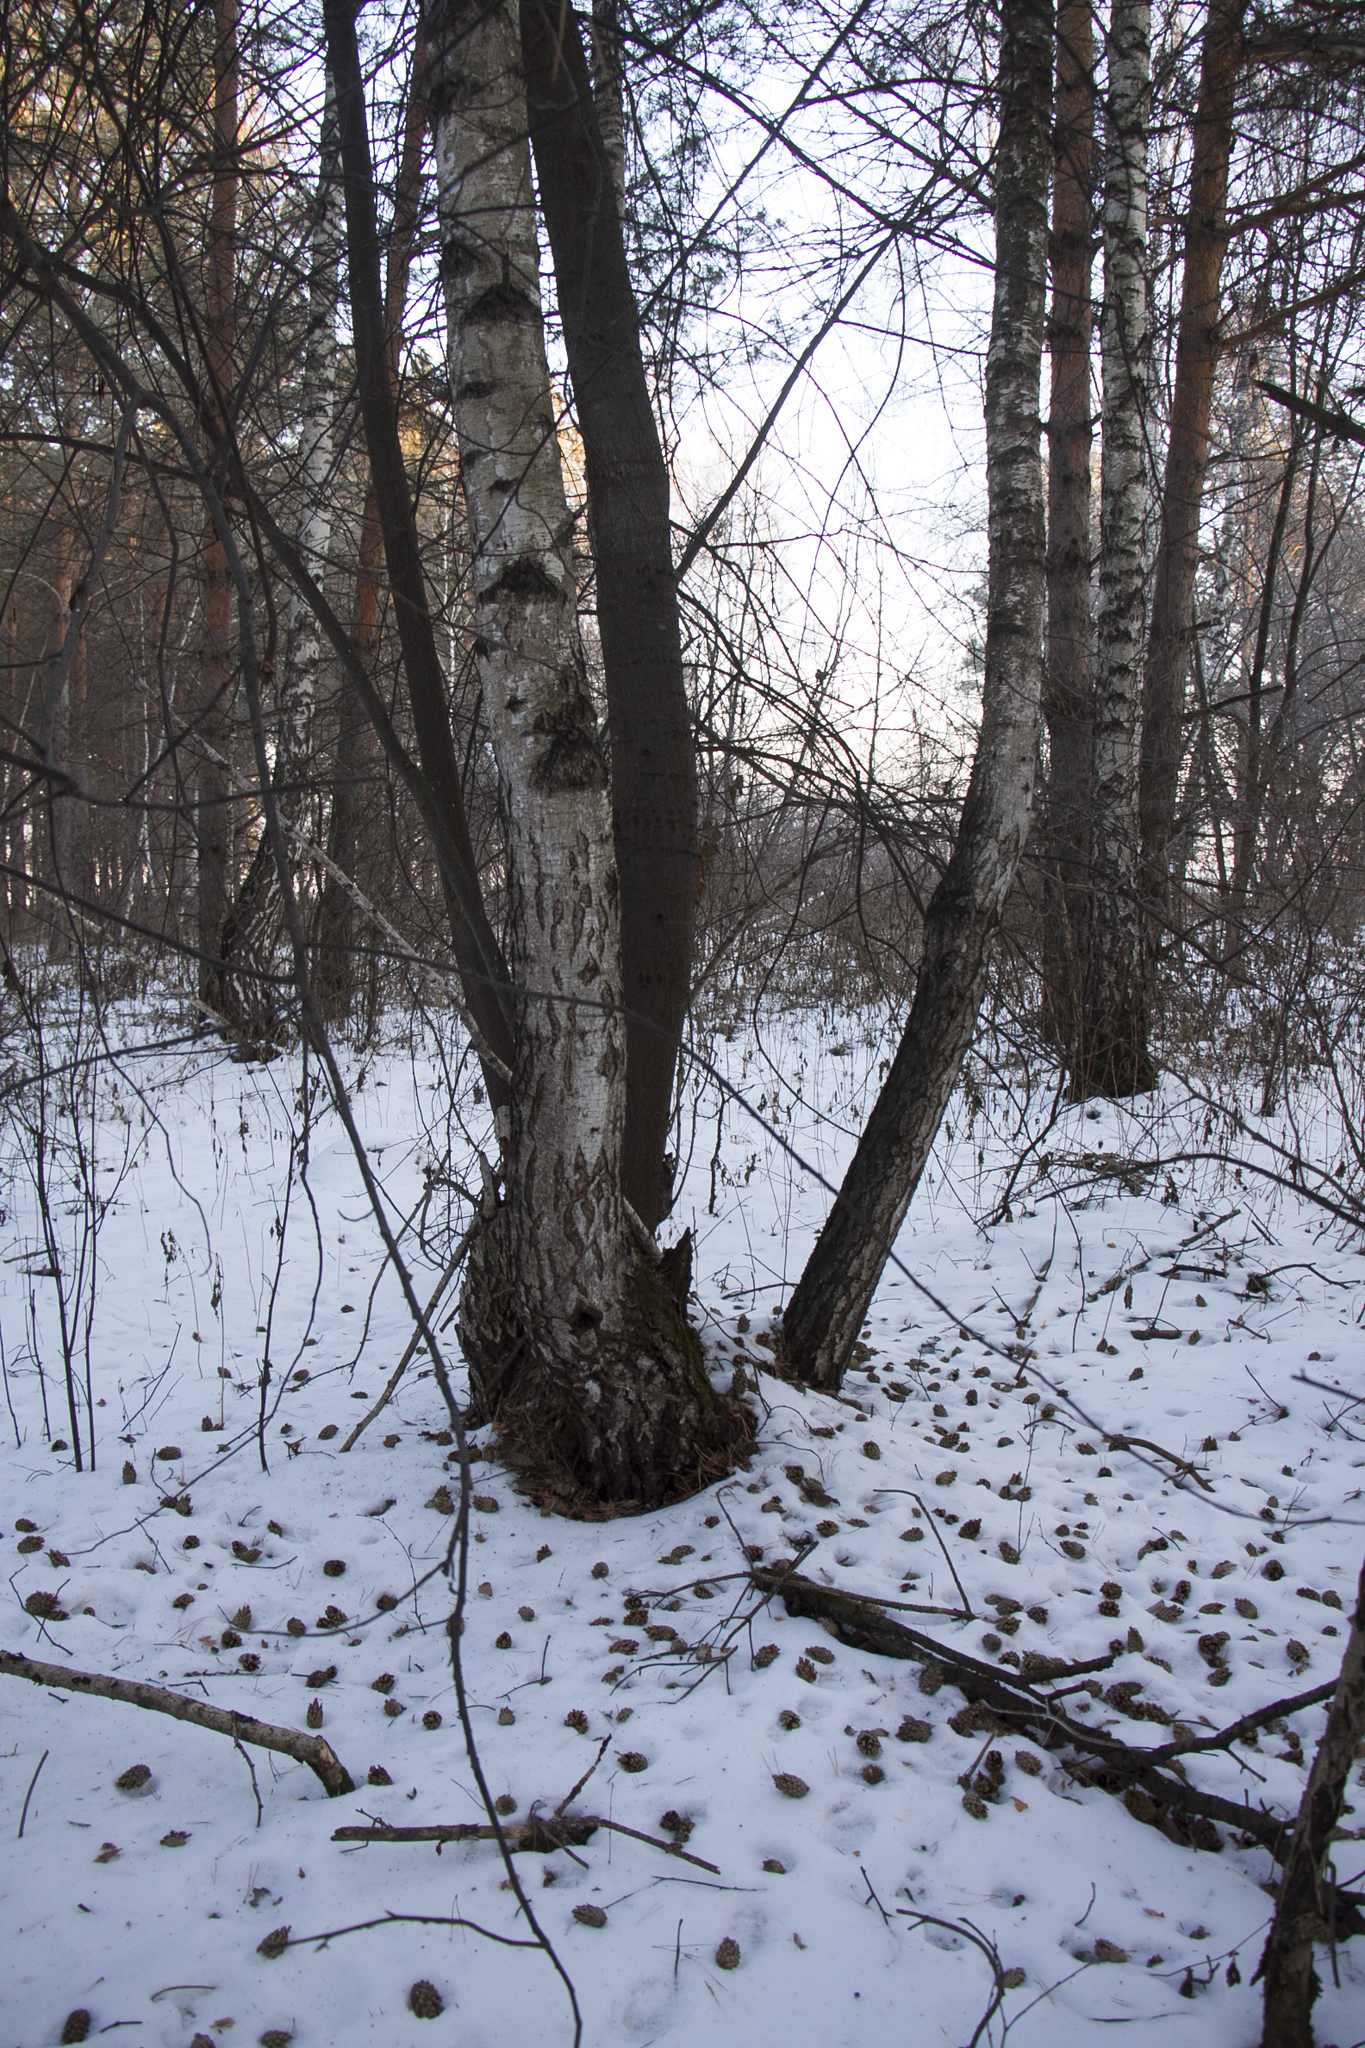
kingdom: Animalia
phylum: Chordata
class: Aves
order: Piciformes
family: Picidae
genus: Dendrocopos
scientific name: Dendrocopos major
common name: Great spotted woodpecker
